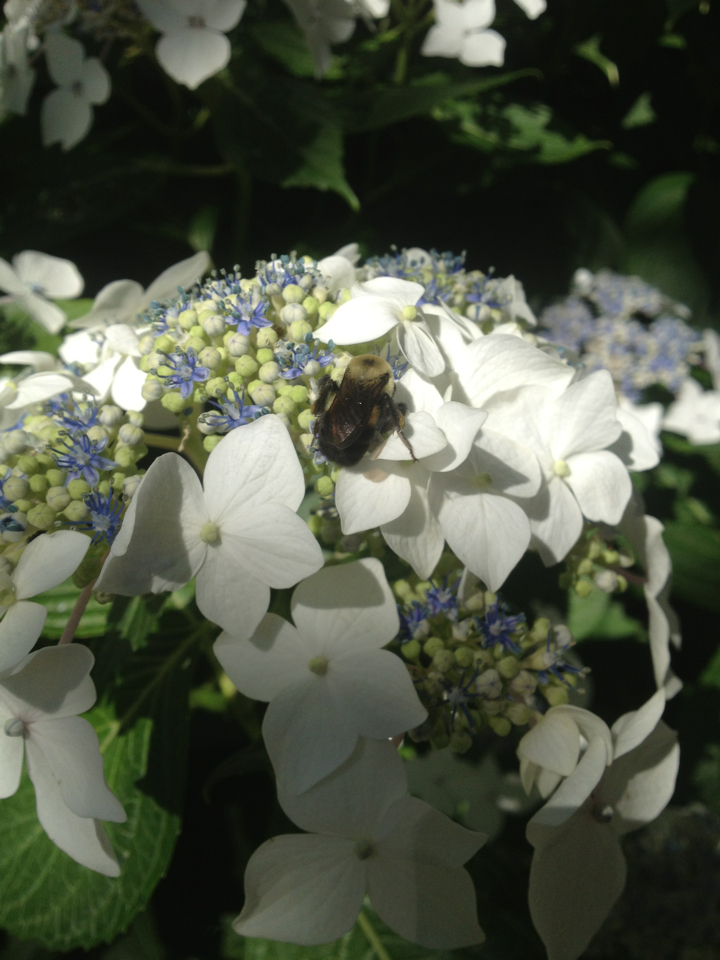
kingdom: Animalia
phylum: Arthropoda
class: Insecta
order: Hymenoptera
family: Apidae
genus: Bombus
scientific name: Bombus griseocollis
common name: Brown-belted bumble bee
